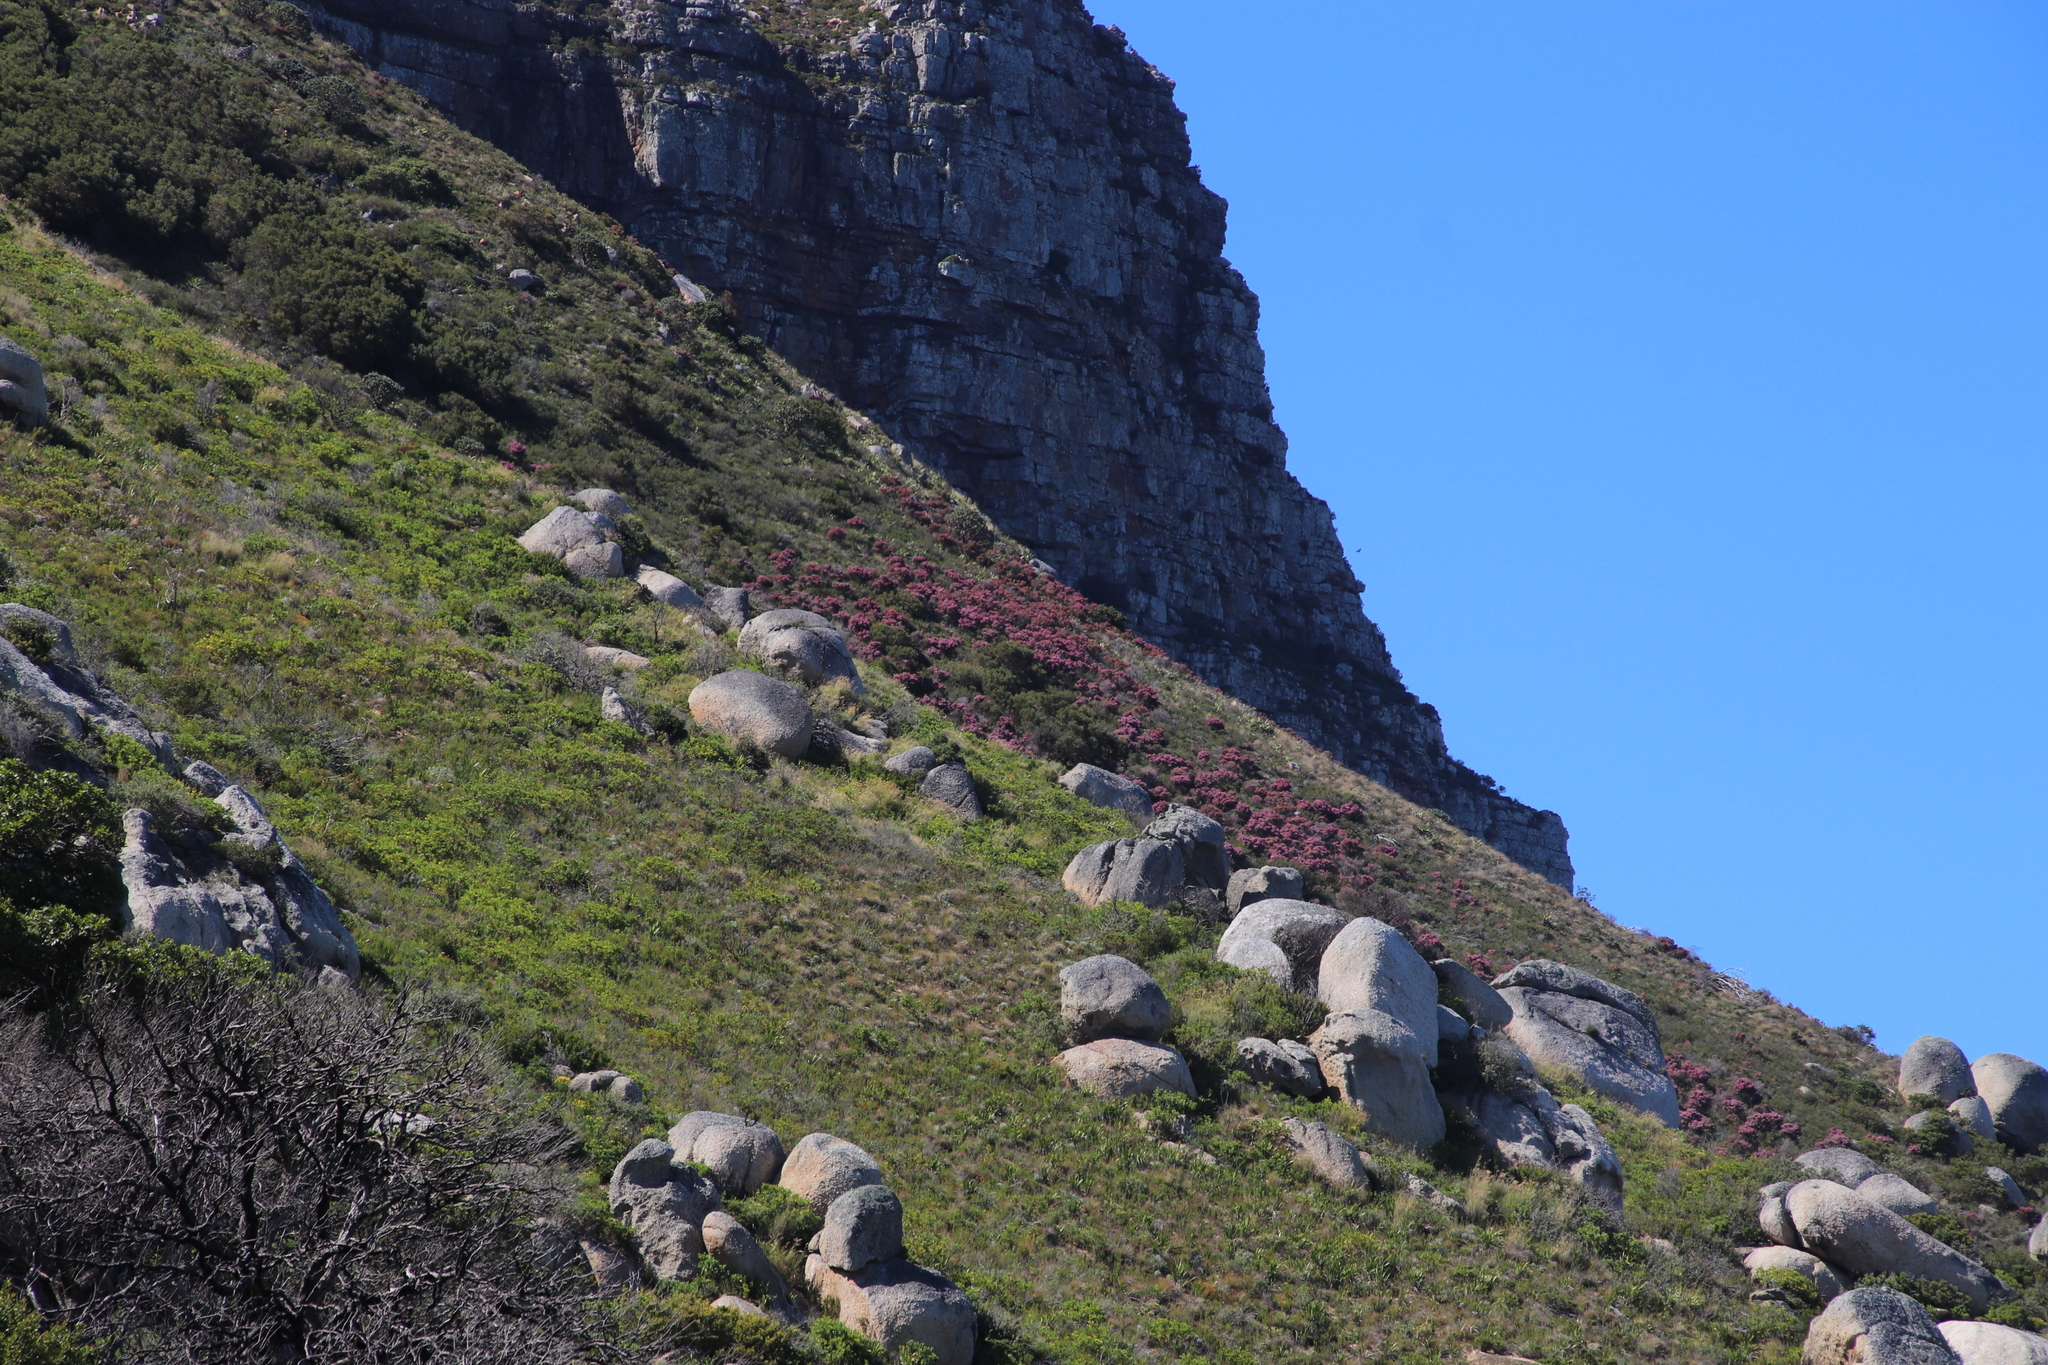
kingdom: Plantae
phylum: Tracheophyta
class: Magnoliopsida
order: Ericales
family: Ericaceae
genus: Erica
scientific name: Erica baccans
